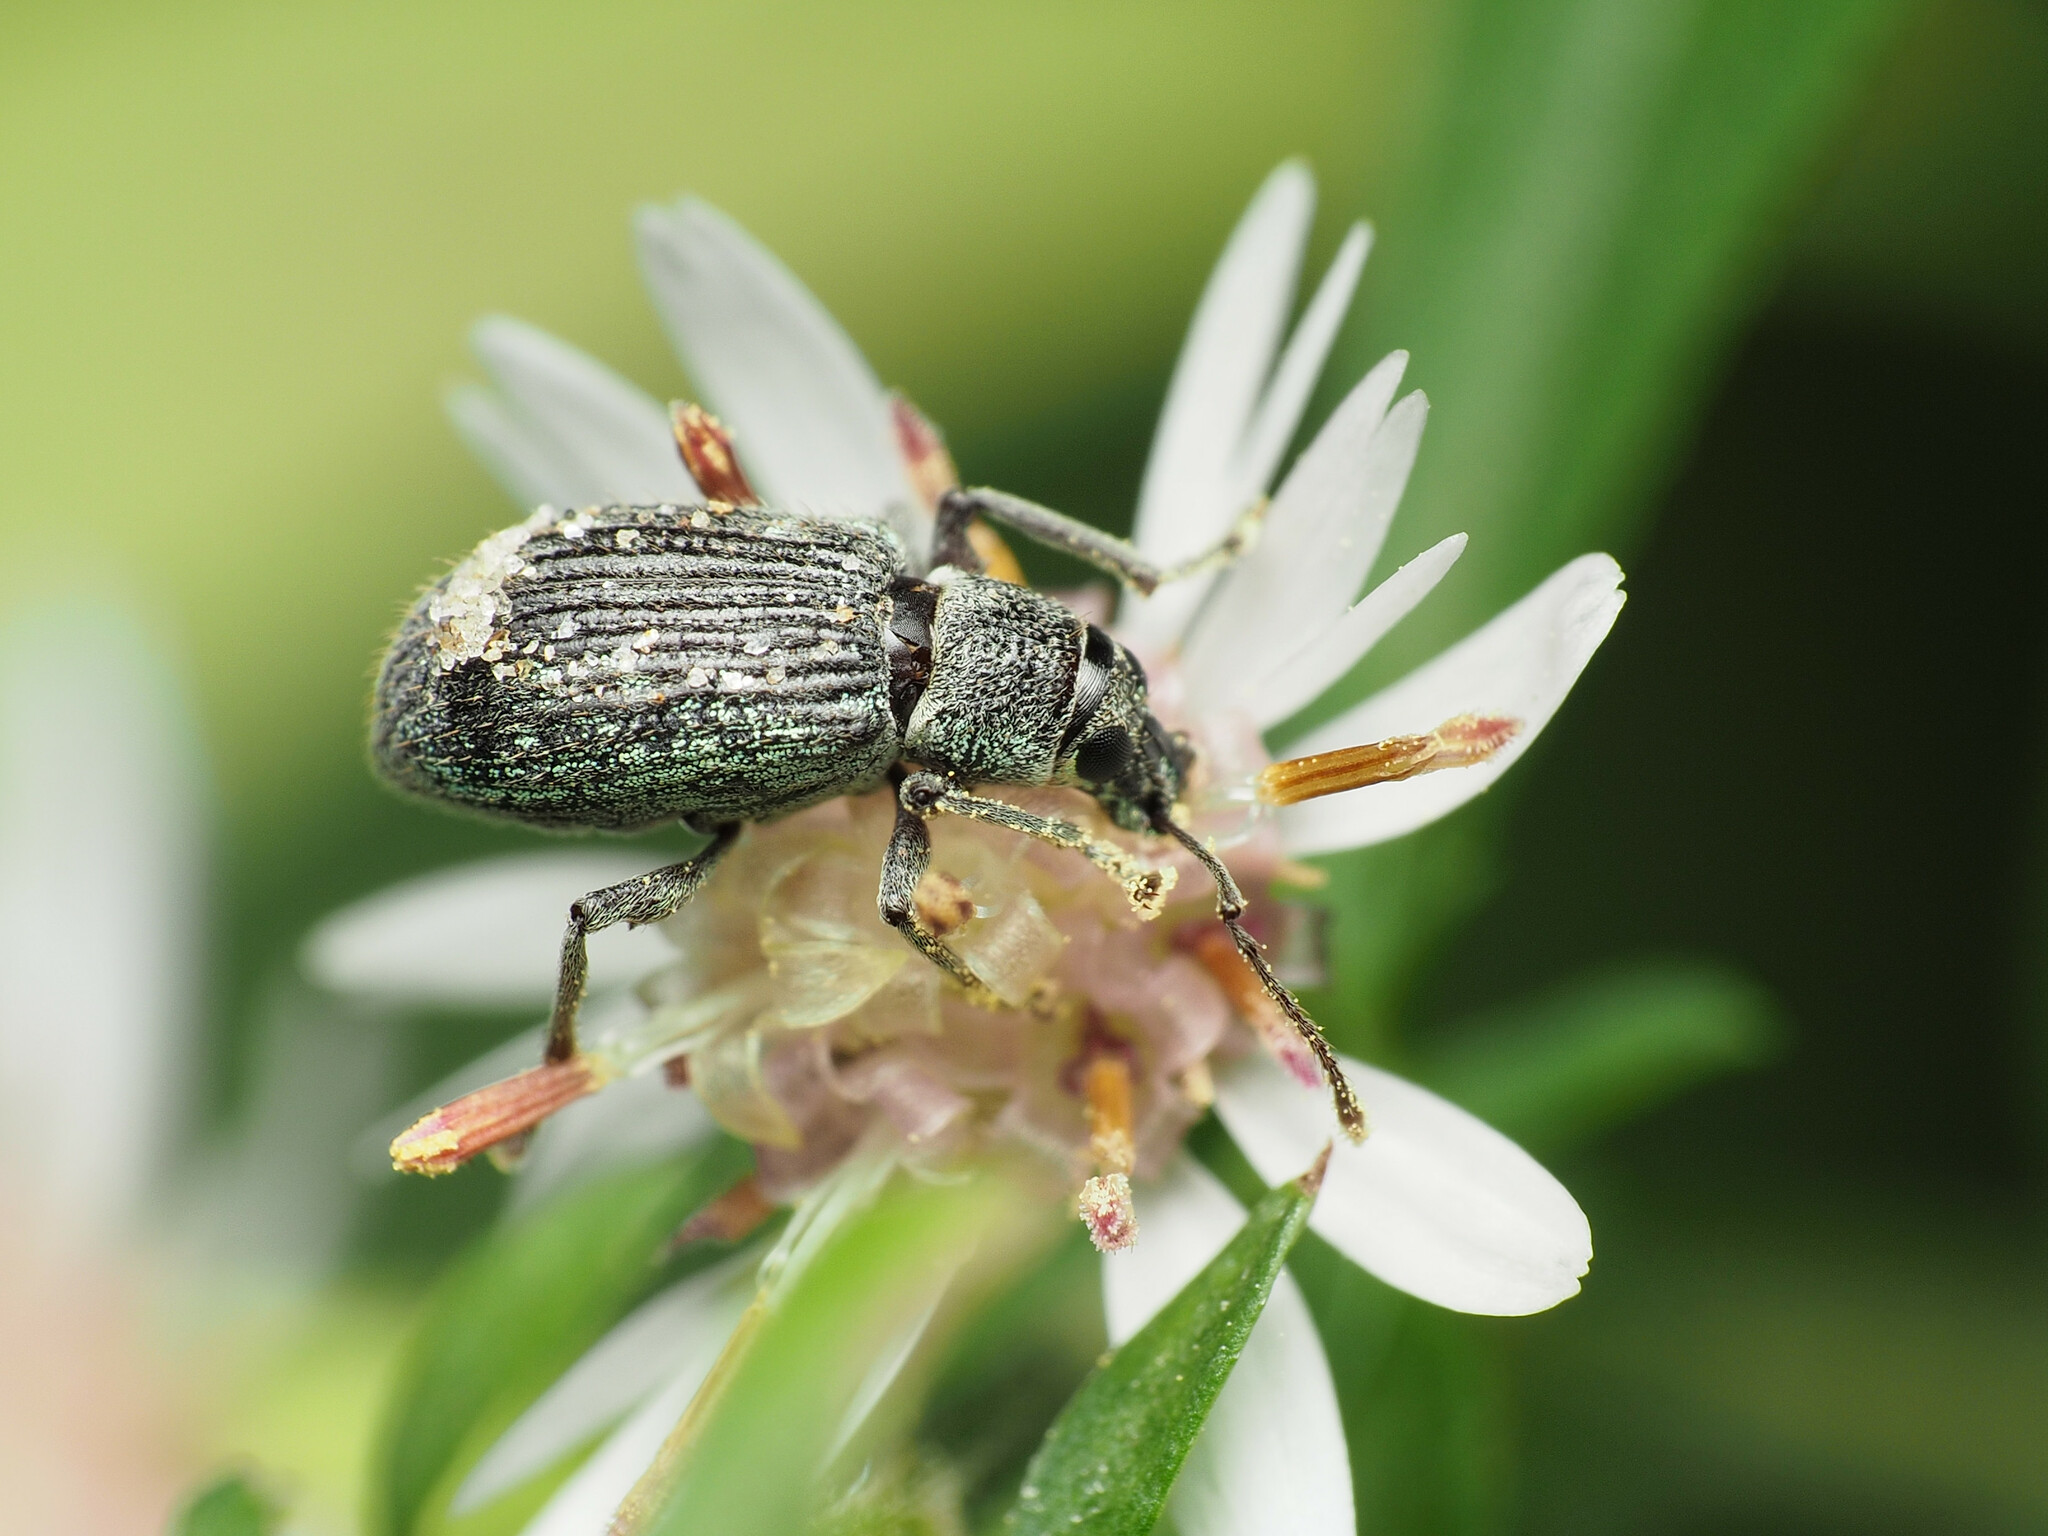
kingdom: Animalia
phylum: Arthropoda
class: Insecta
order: Coleoptera
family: Curculionidae
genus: Cyrtepistomus
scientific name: Cyrtepistomus castaneus
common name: Weevil
